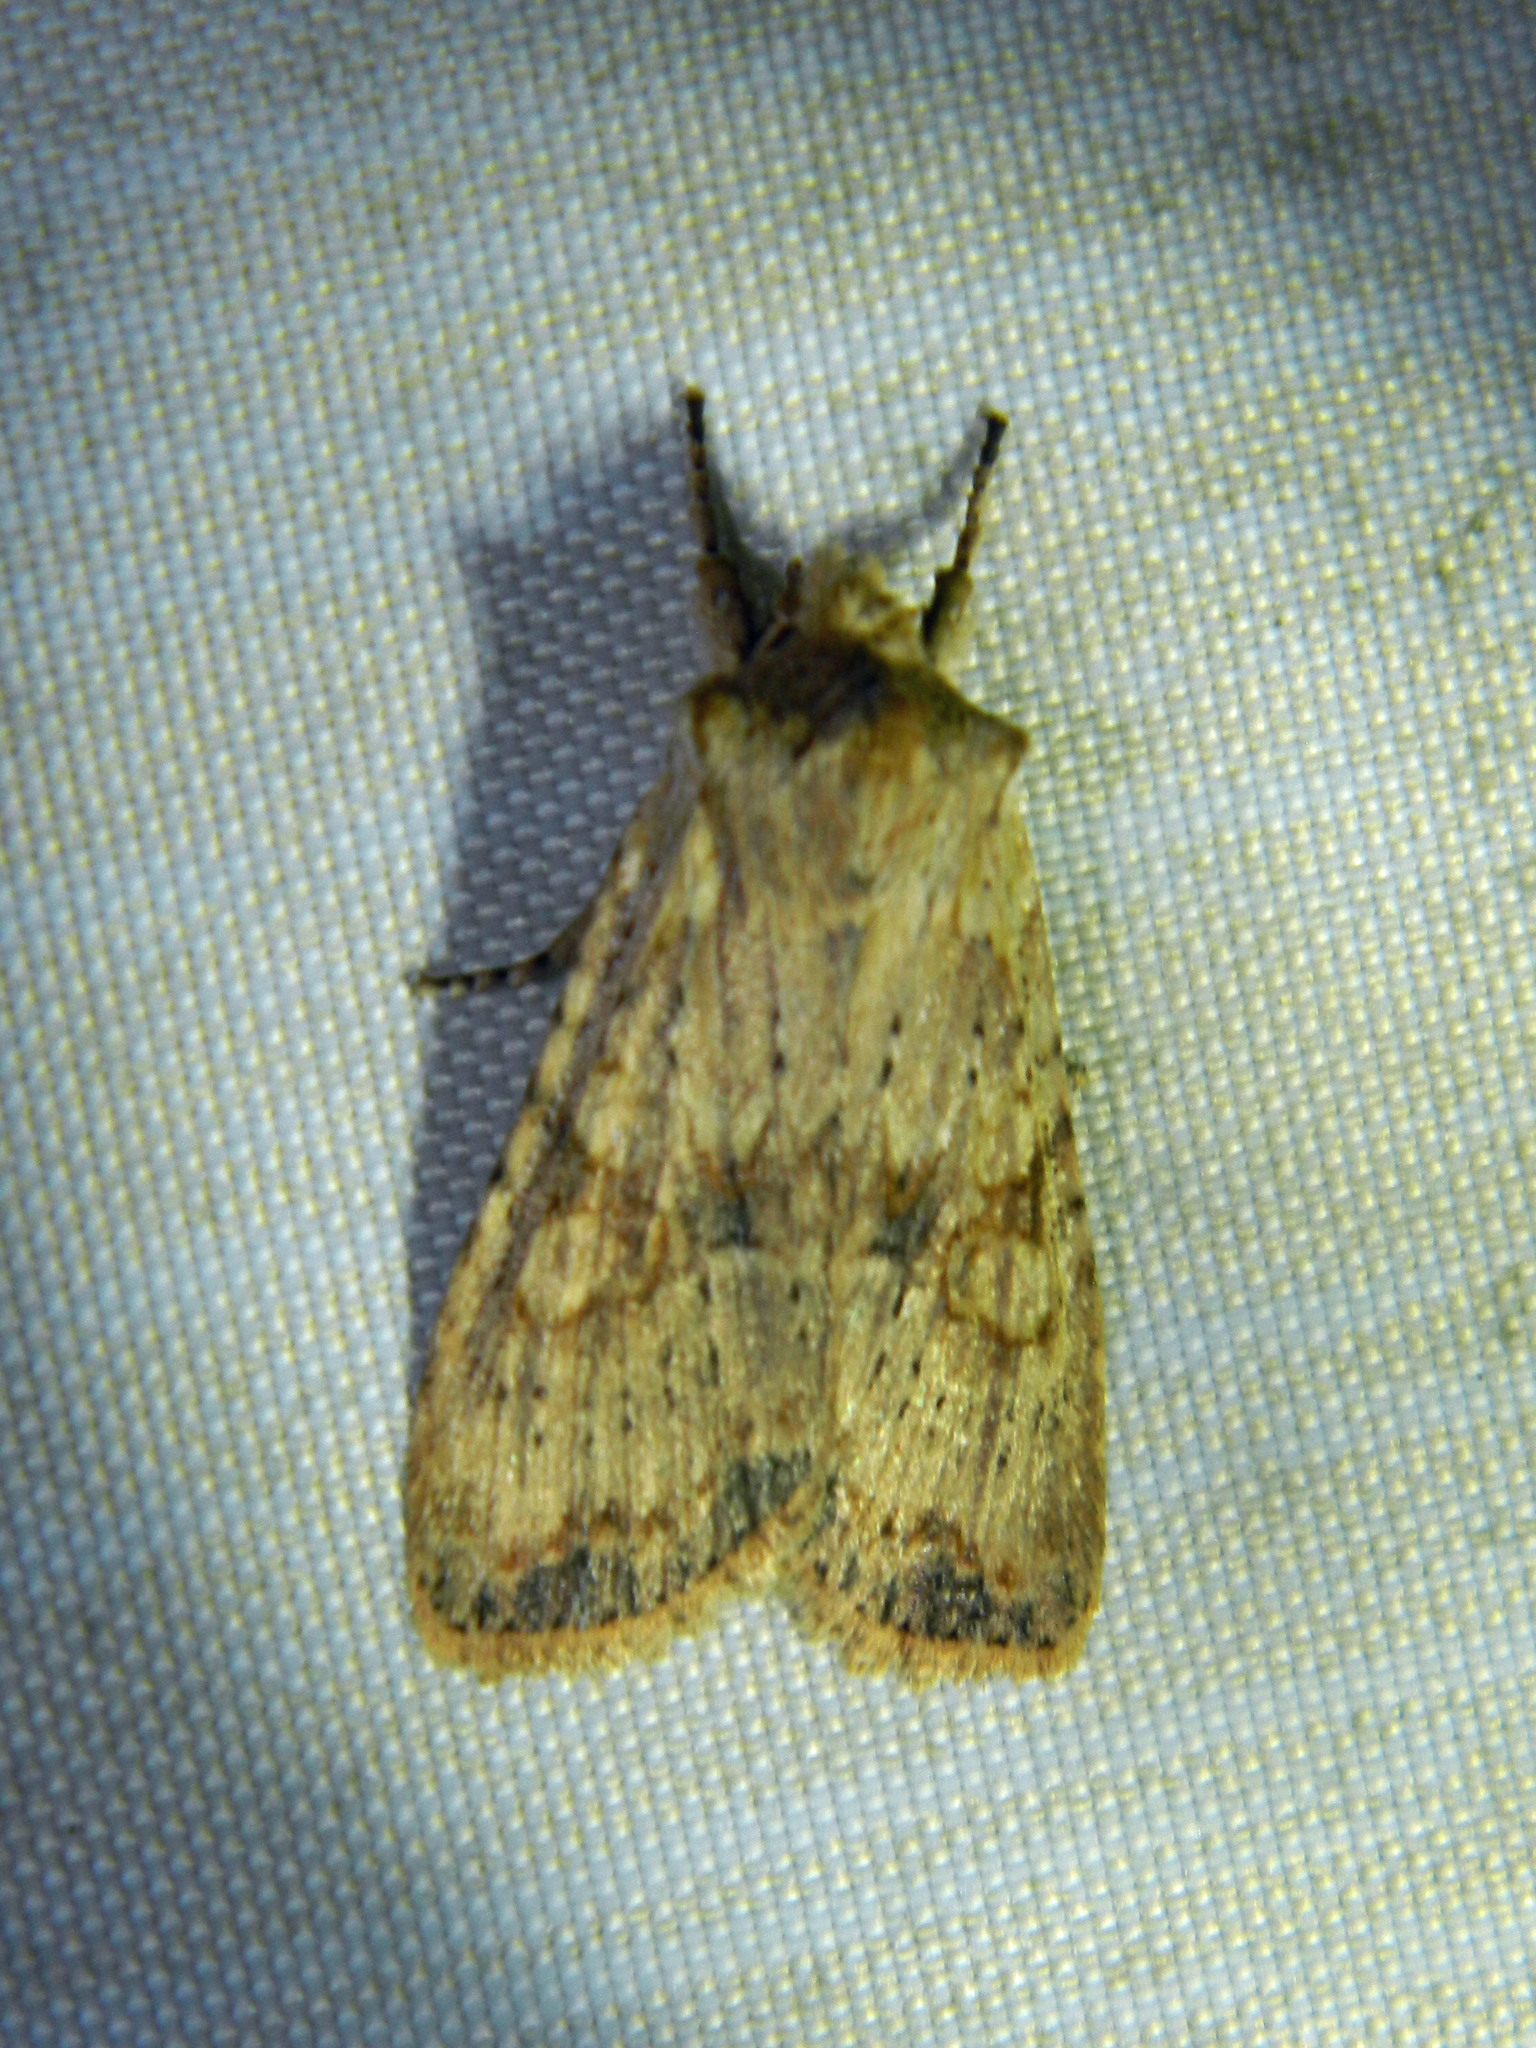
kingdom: Animalia
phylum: Arthropoda
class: Insecta
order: Lepidoptera
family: Noctuidae
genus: Lithophane
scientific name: Lithophane innominata
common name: Nameless pinion moth
